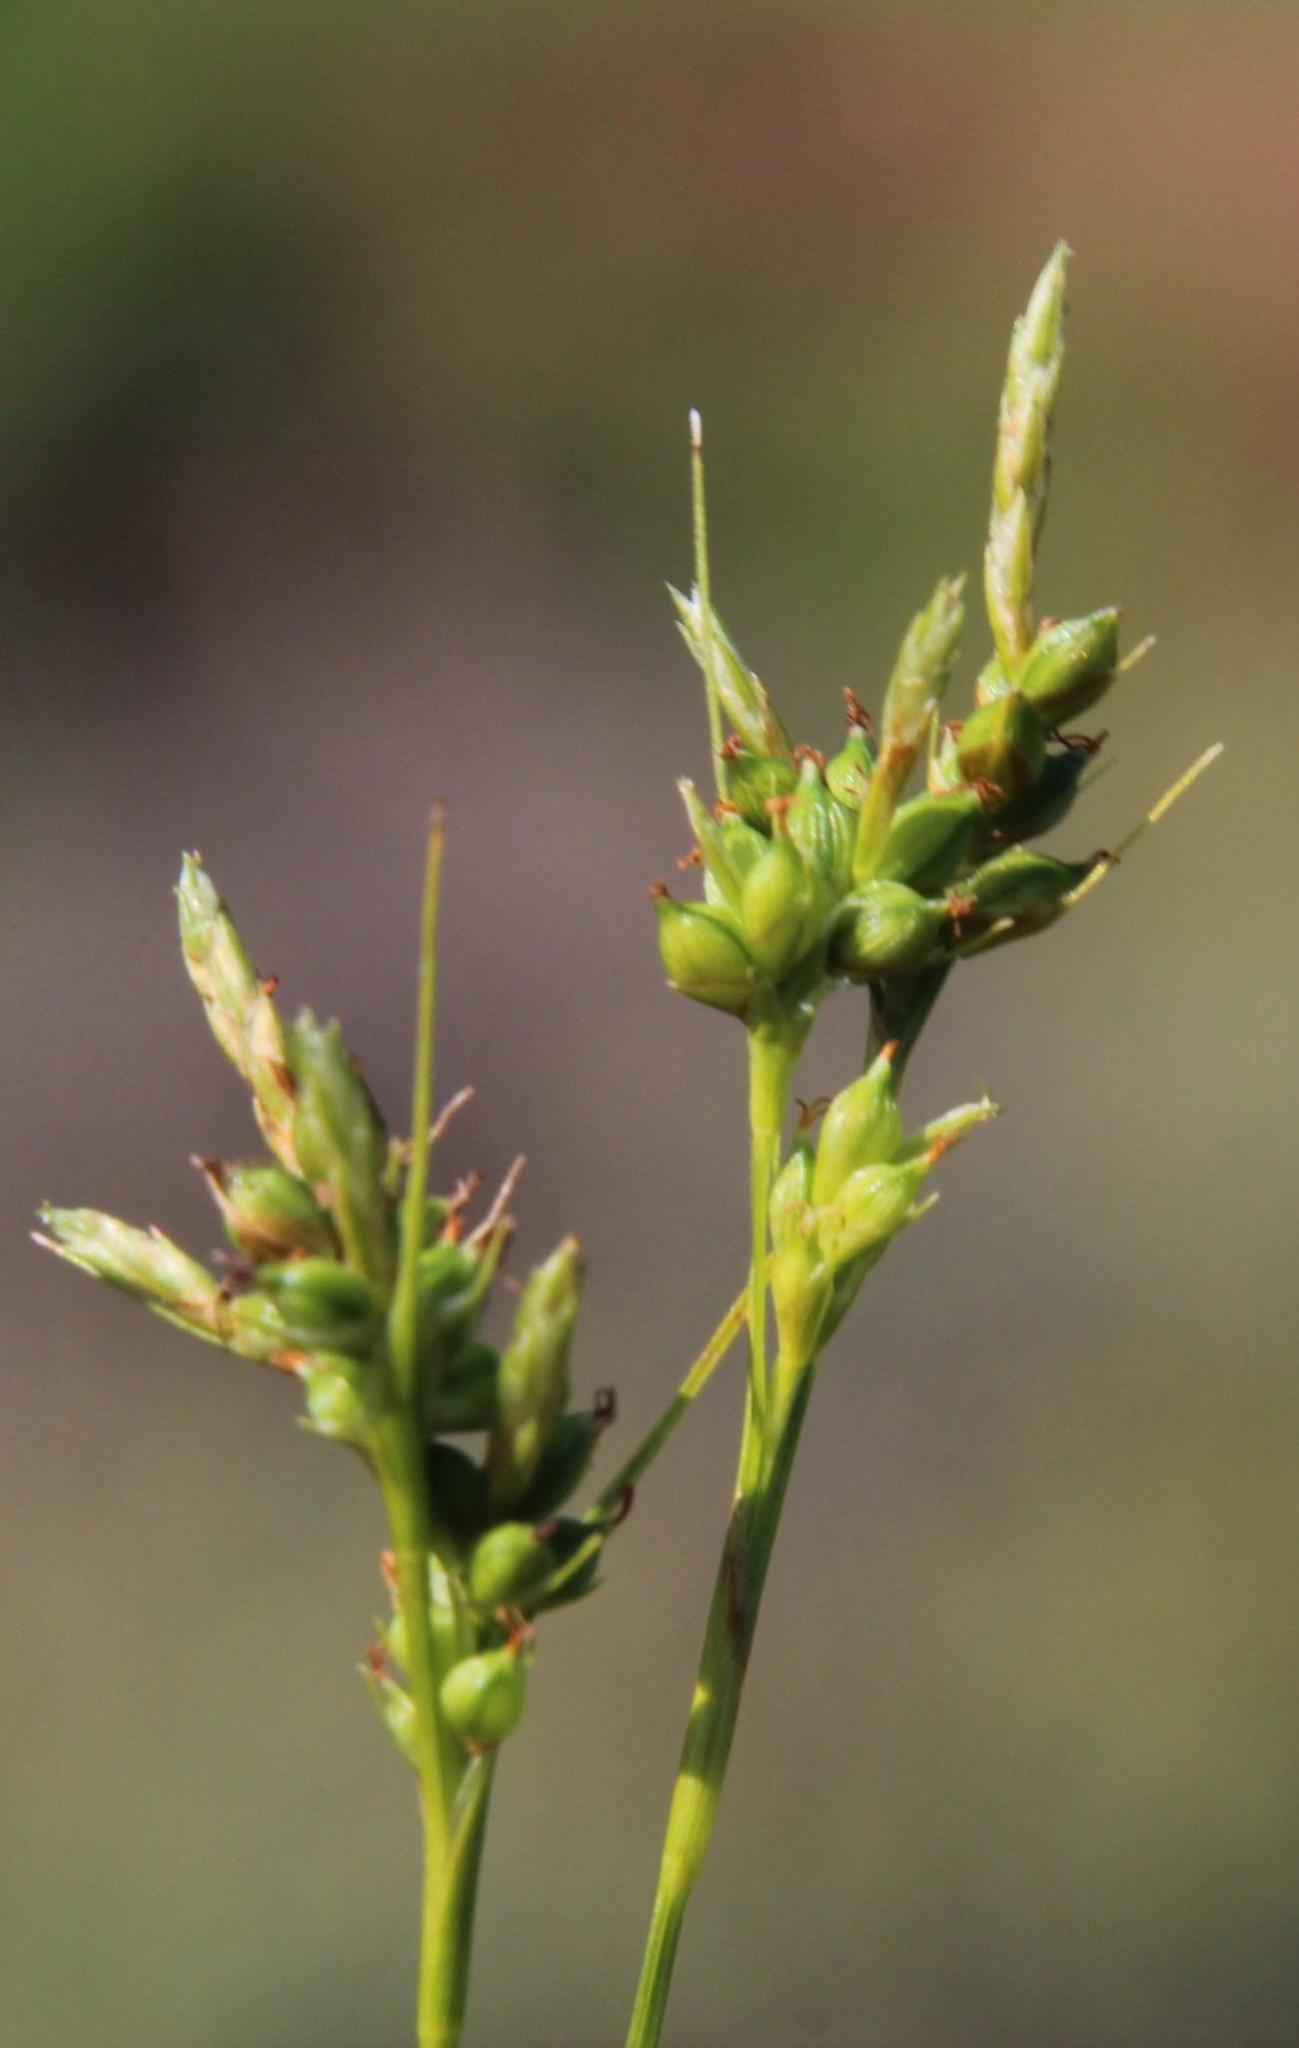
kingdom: Plantae
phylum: Tracheophyta
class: Liliopsida
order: Poales
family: Cyperaceae
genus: Carex
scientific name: Carex spartea
